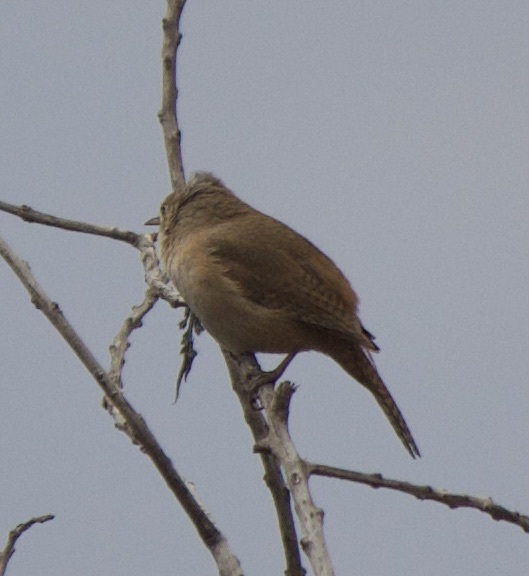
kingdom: Animalia
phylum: Chordata
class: Aves
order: Passeriformes
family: Troglodytidae
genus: Troglodytes
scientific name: Troglodytes aedon
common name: House wren
